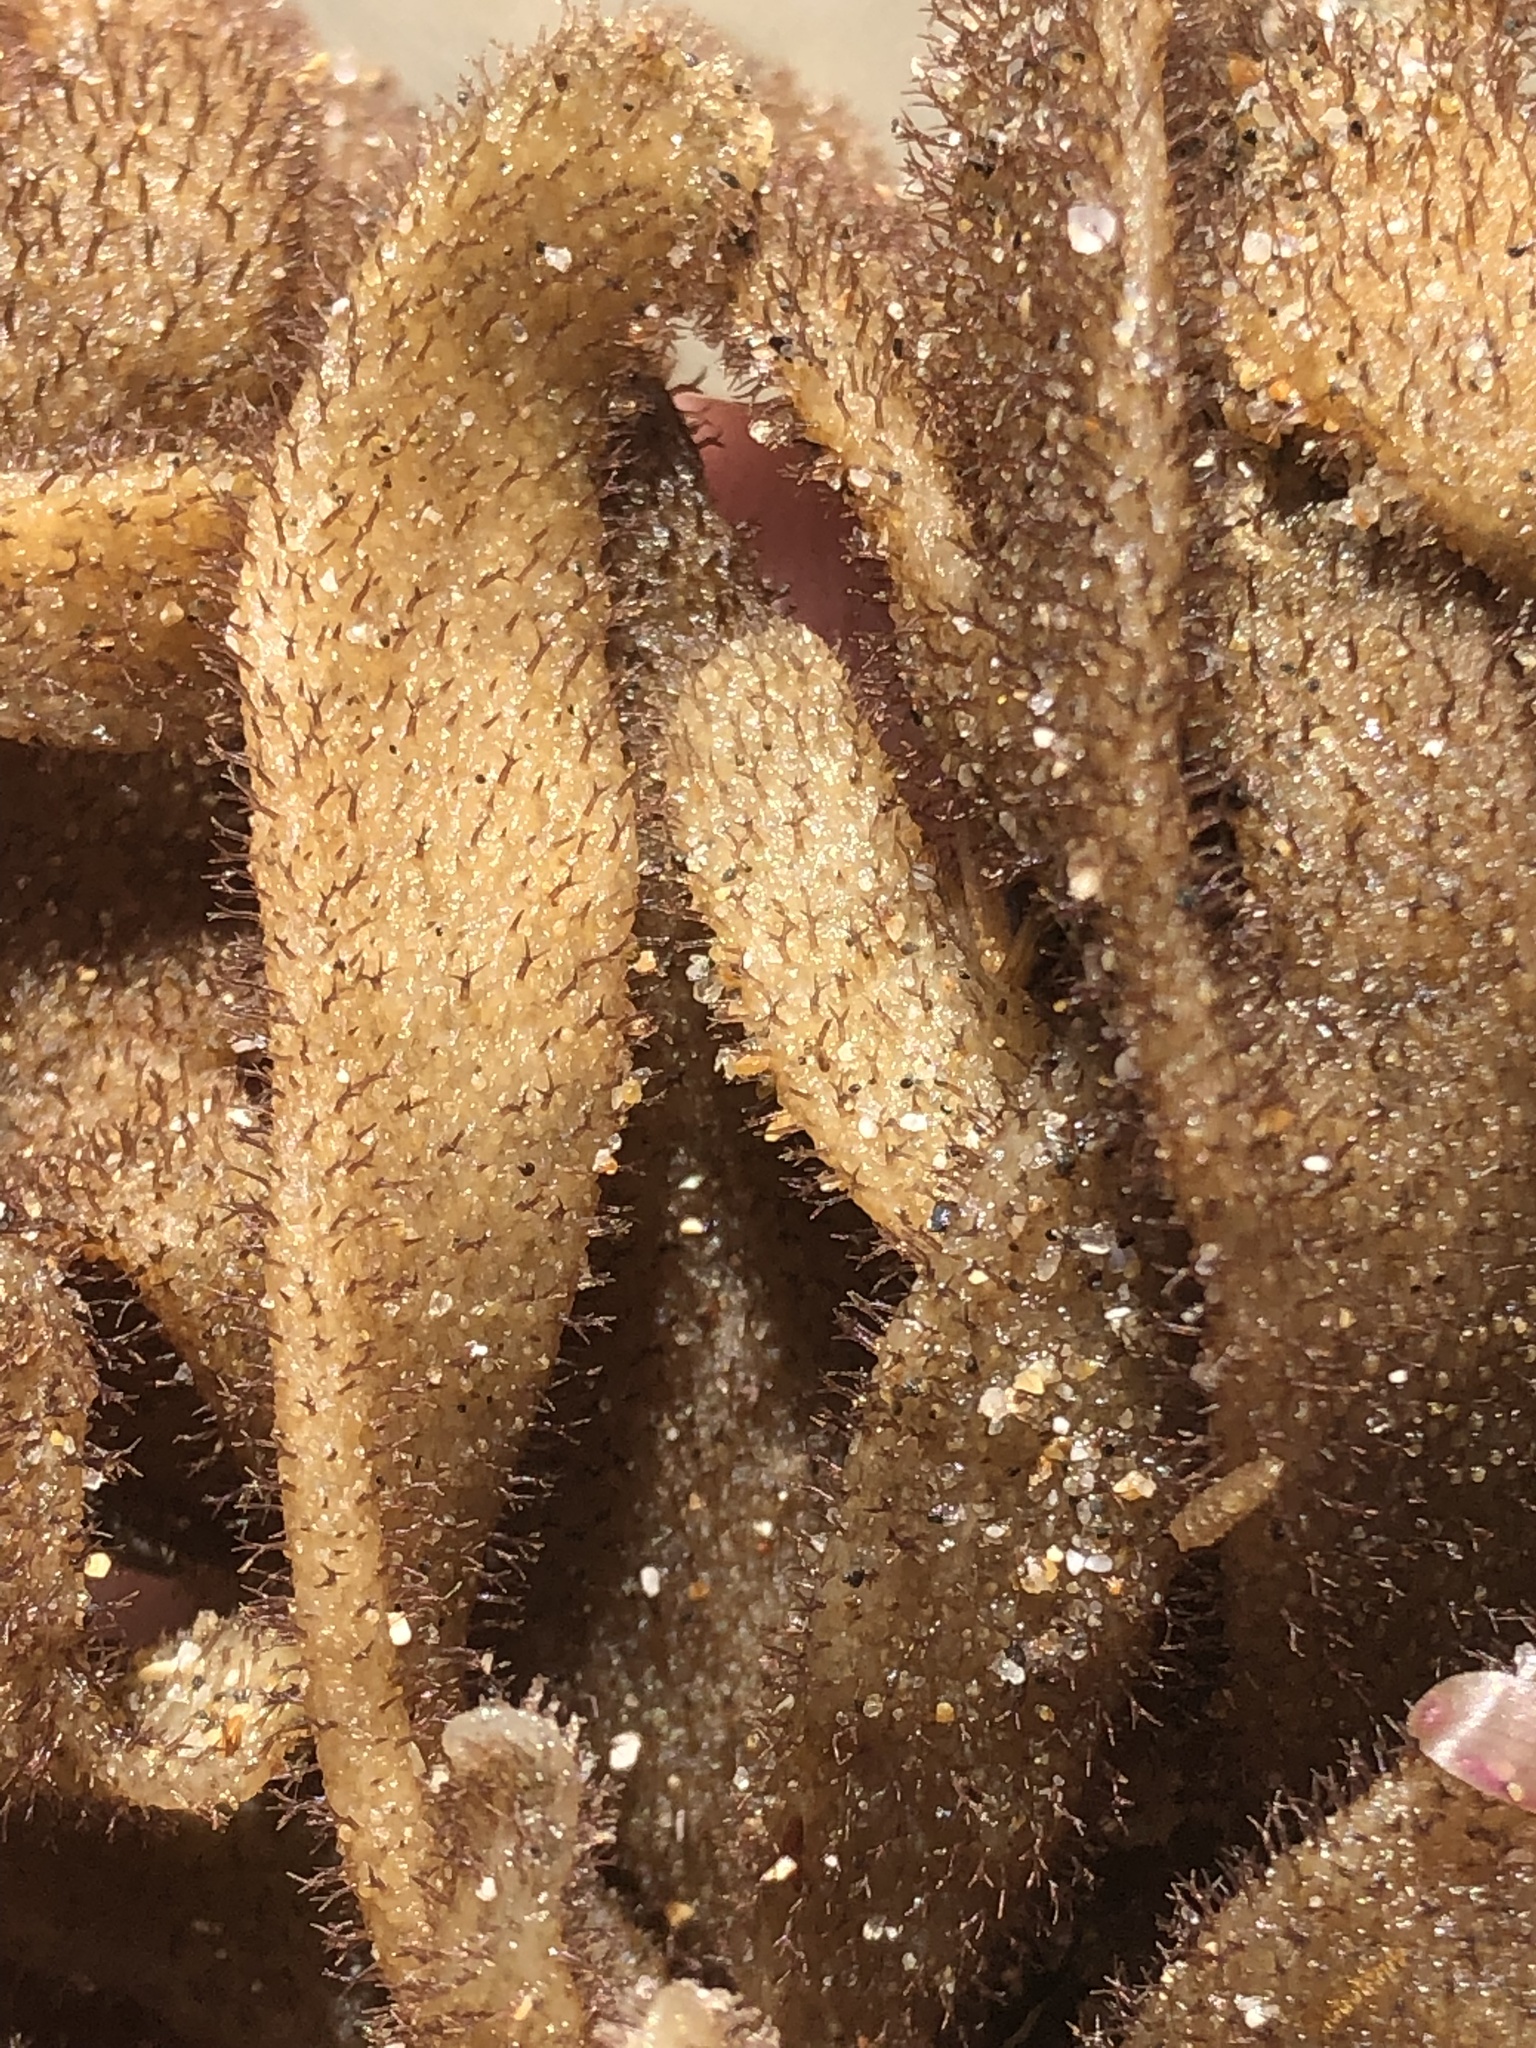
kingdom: Animalia
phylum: Bryozoa
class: Gymnolaemata
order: Ctenostomatida
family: Flustrellidridae
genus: Flustrellidra
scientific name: Flustrellidra corniculata
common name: Spiny leather bryozoan
